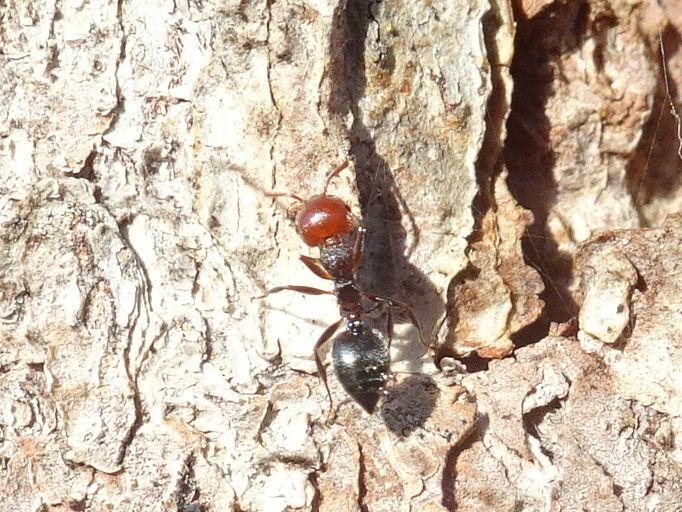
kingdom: Animalia
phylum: Arthropoda
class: Insecta
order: Hymenoptera
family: Formicidae
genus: Crematogaster
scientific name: Crematogaster scutellaris
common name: Fourmi du liège
